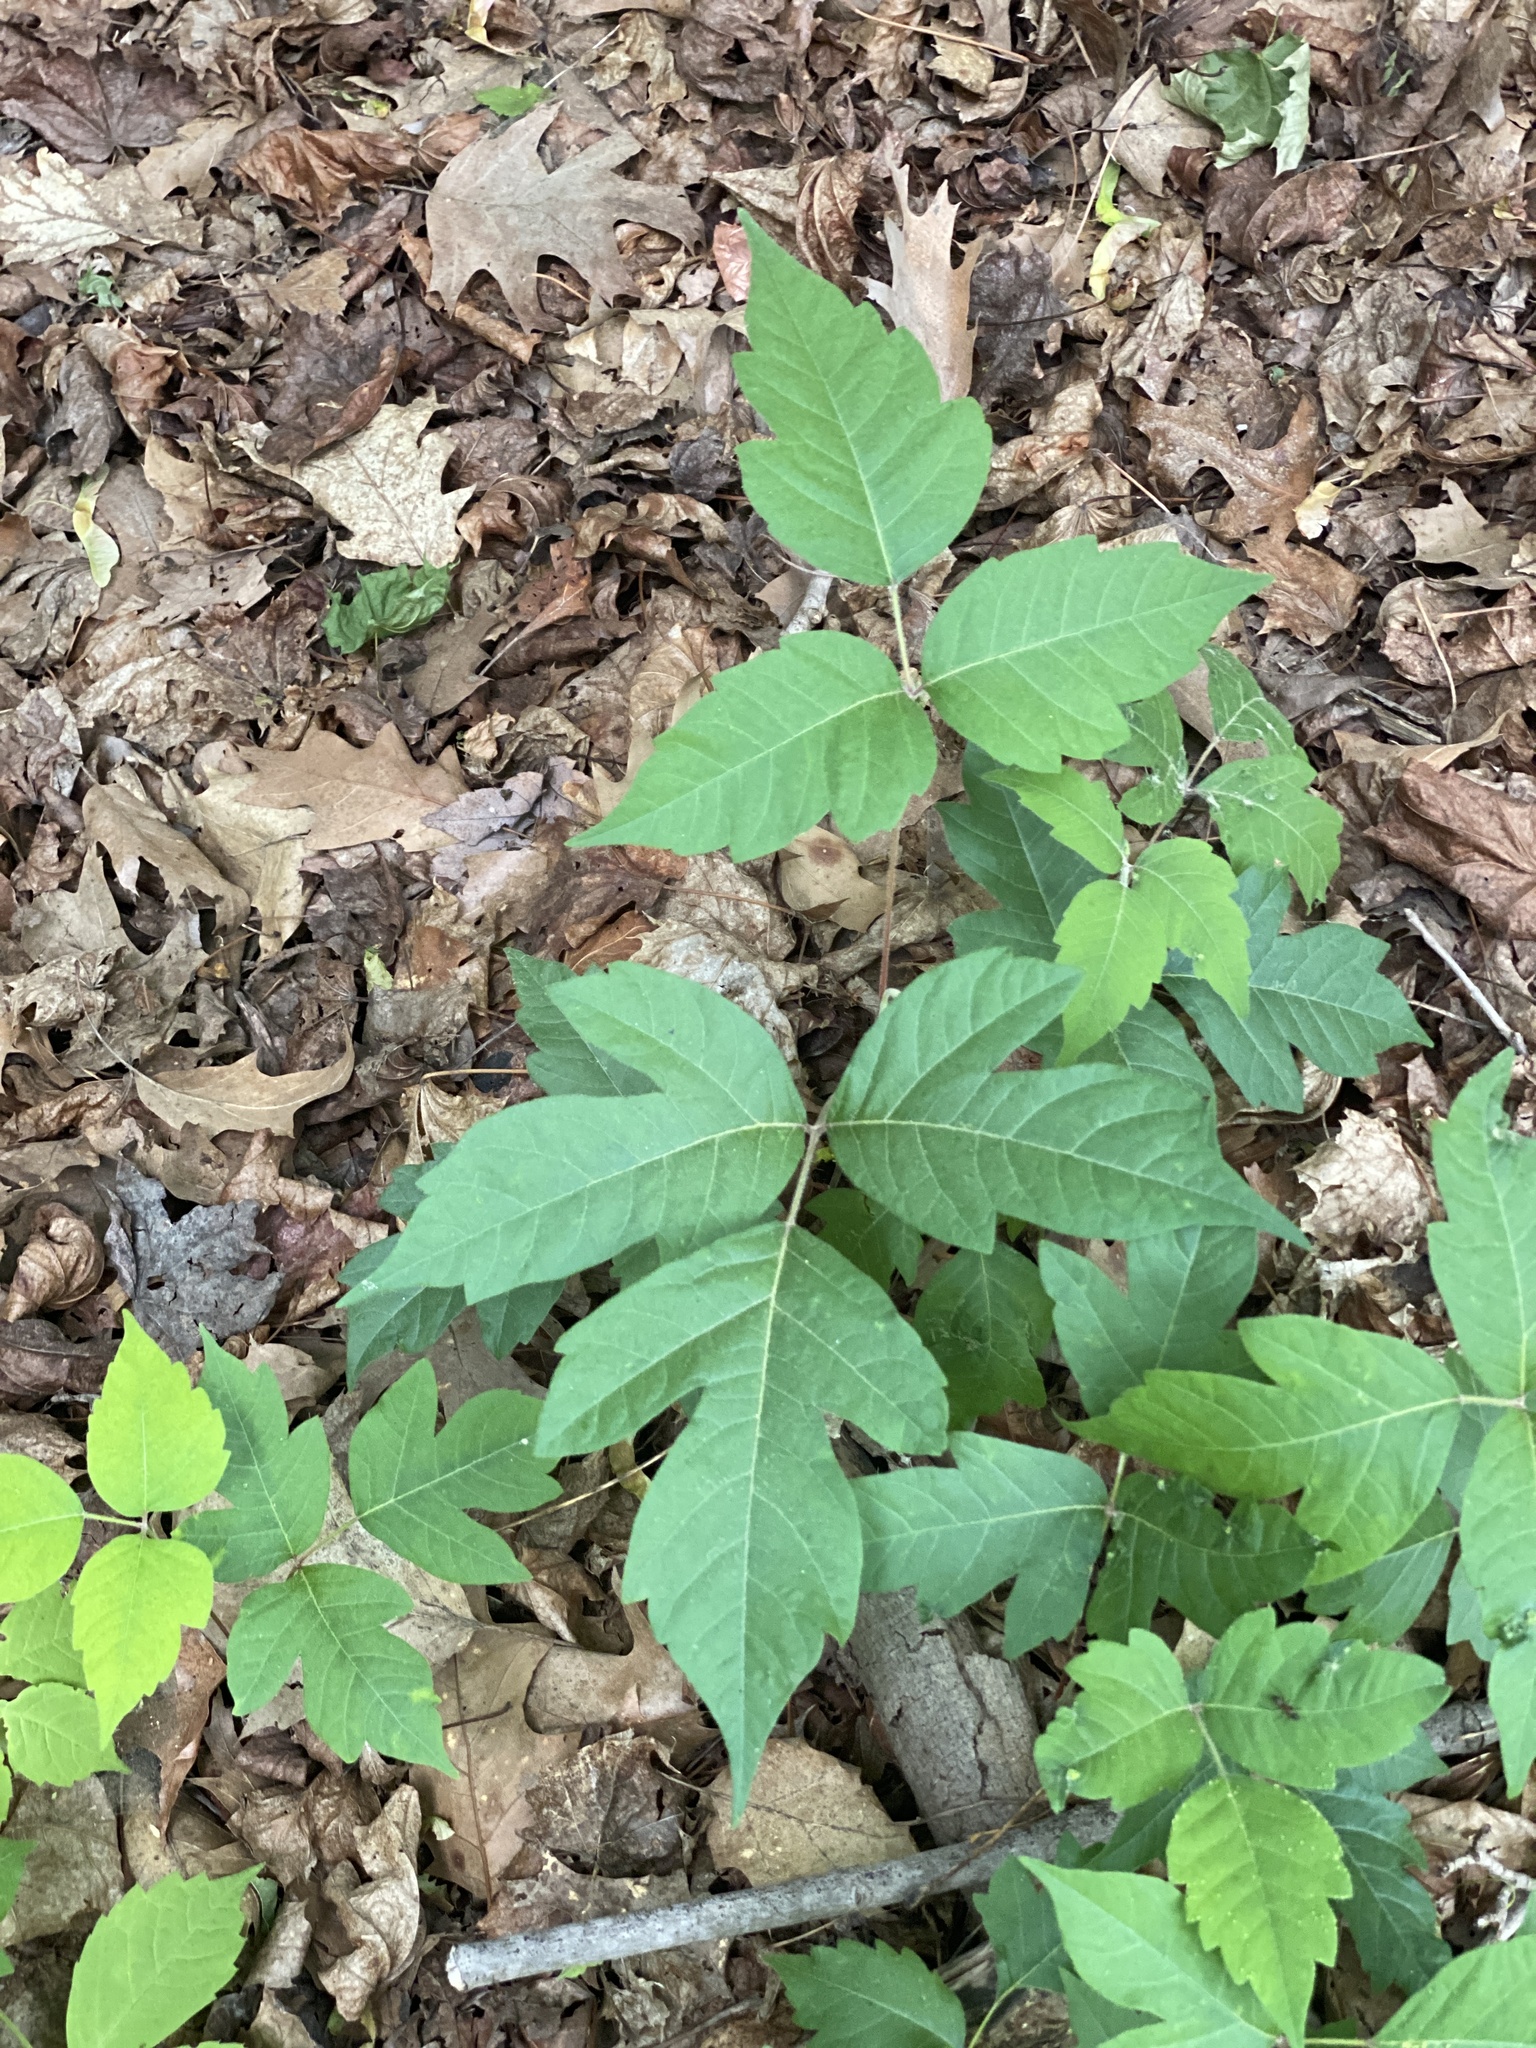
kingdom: Plantae
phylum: Tracheophyta
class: Magnoliopsida
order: Sapindales
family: Anacardiaceae
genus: Toxicodendron
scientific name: Toxicodendron radicans
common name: Poison ivy
